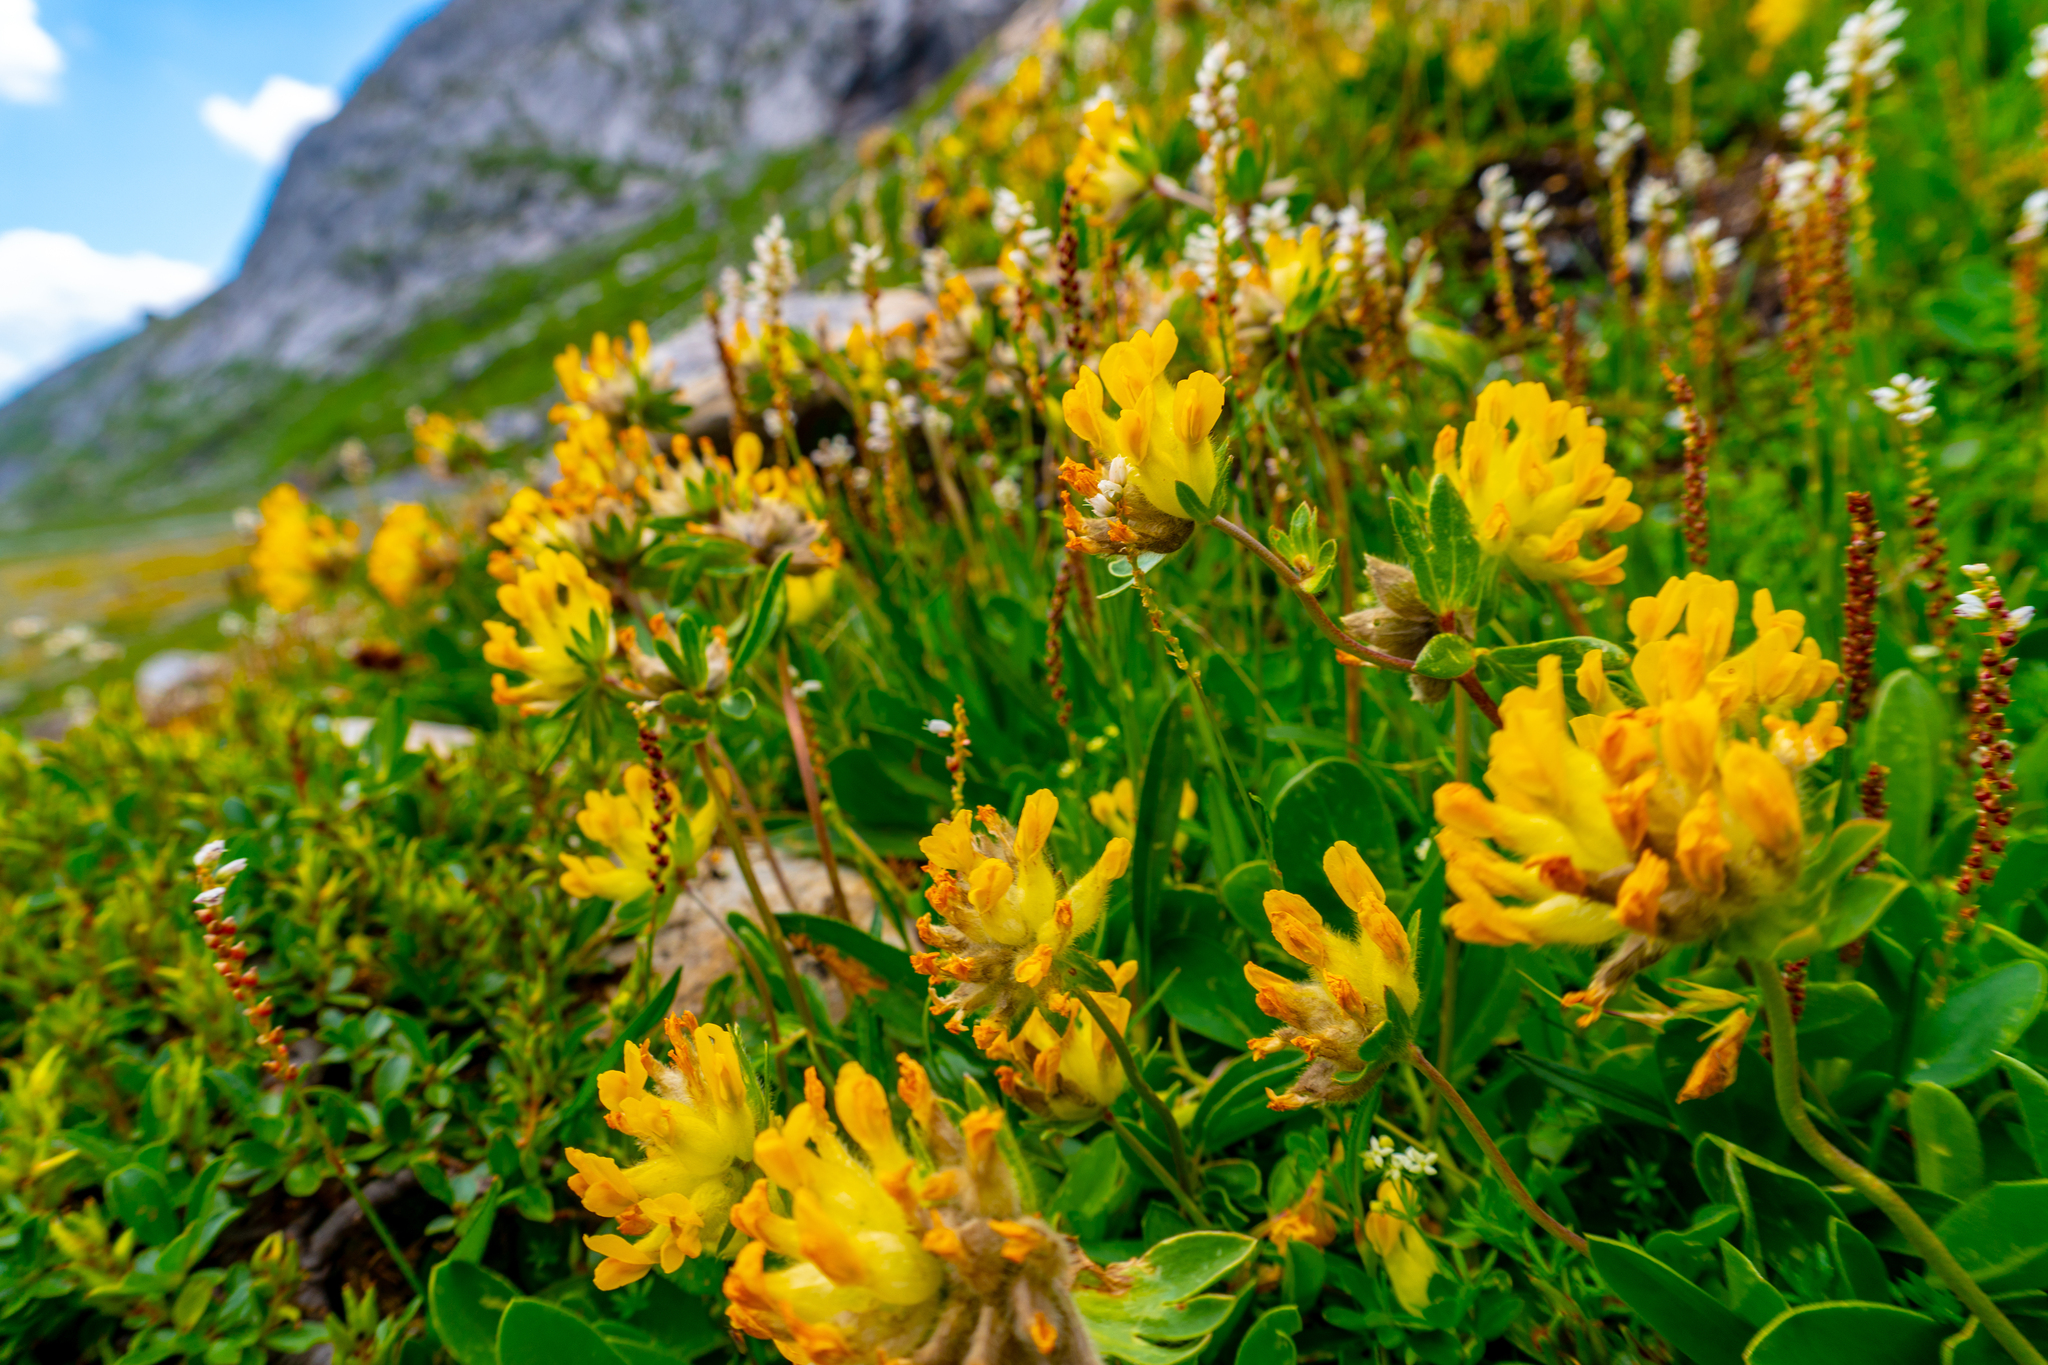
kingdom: Plantae
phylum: Tracheophyta
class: Magnoliopsida
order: Fabales
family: Fabaceae
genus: Anthyllis
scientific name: Anthyllis vulneraria
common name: Kidney vetch
